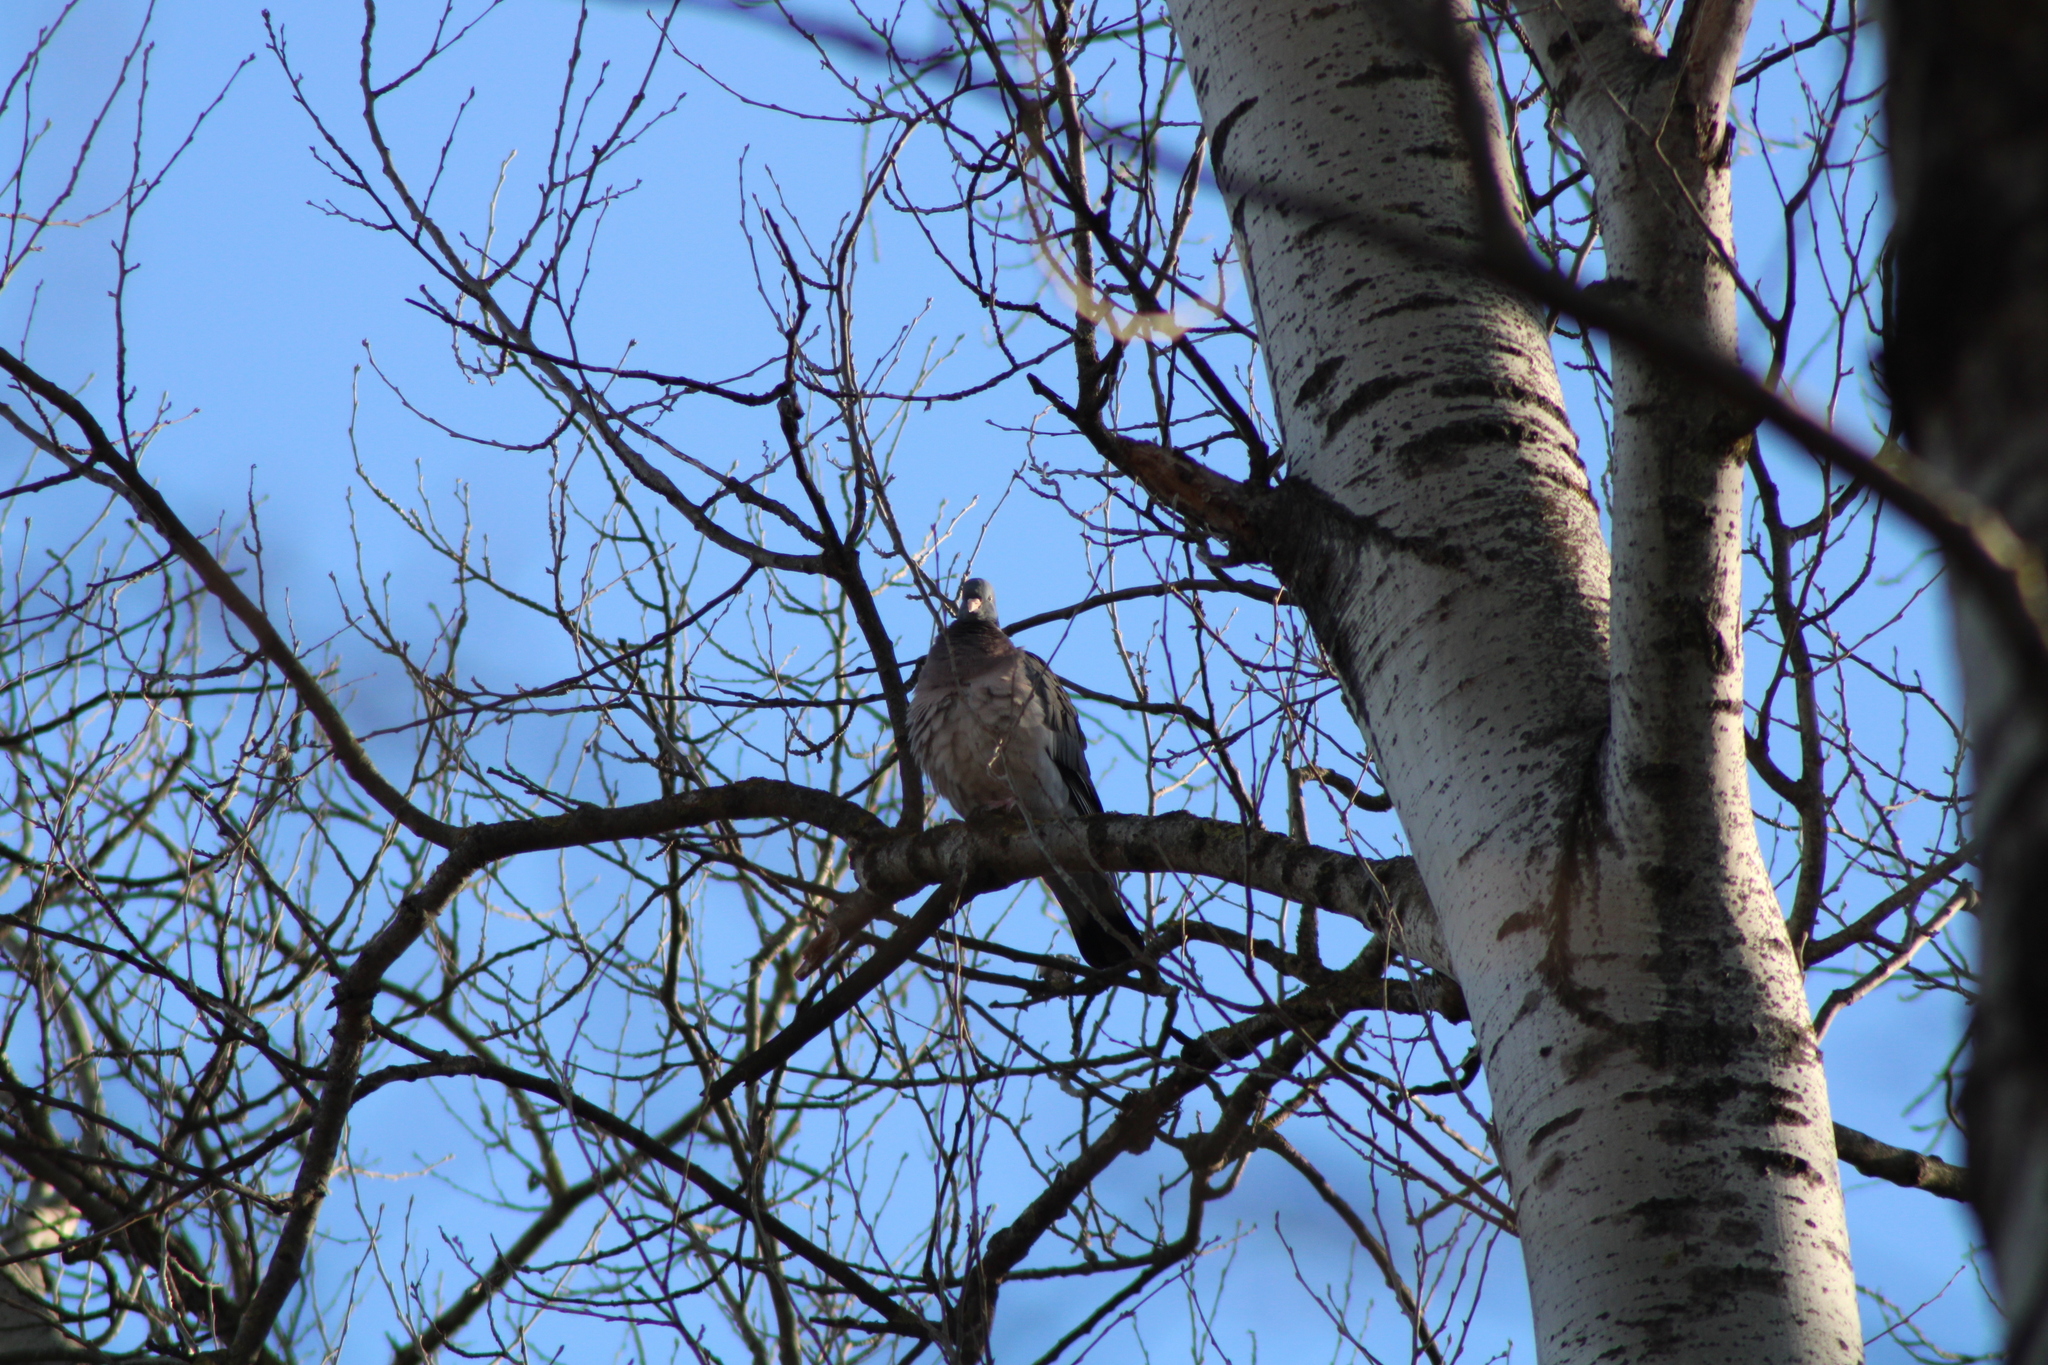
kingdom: Animalia
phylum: Chordata
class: Aves
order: Columbiformes
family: Columbidae
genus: Columba
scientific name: Columba palumbus
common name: Common wood pigeon
